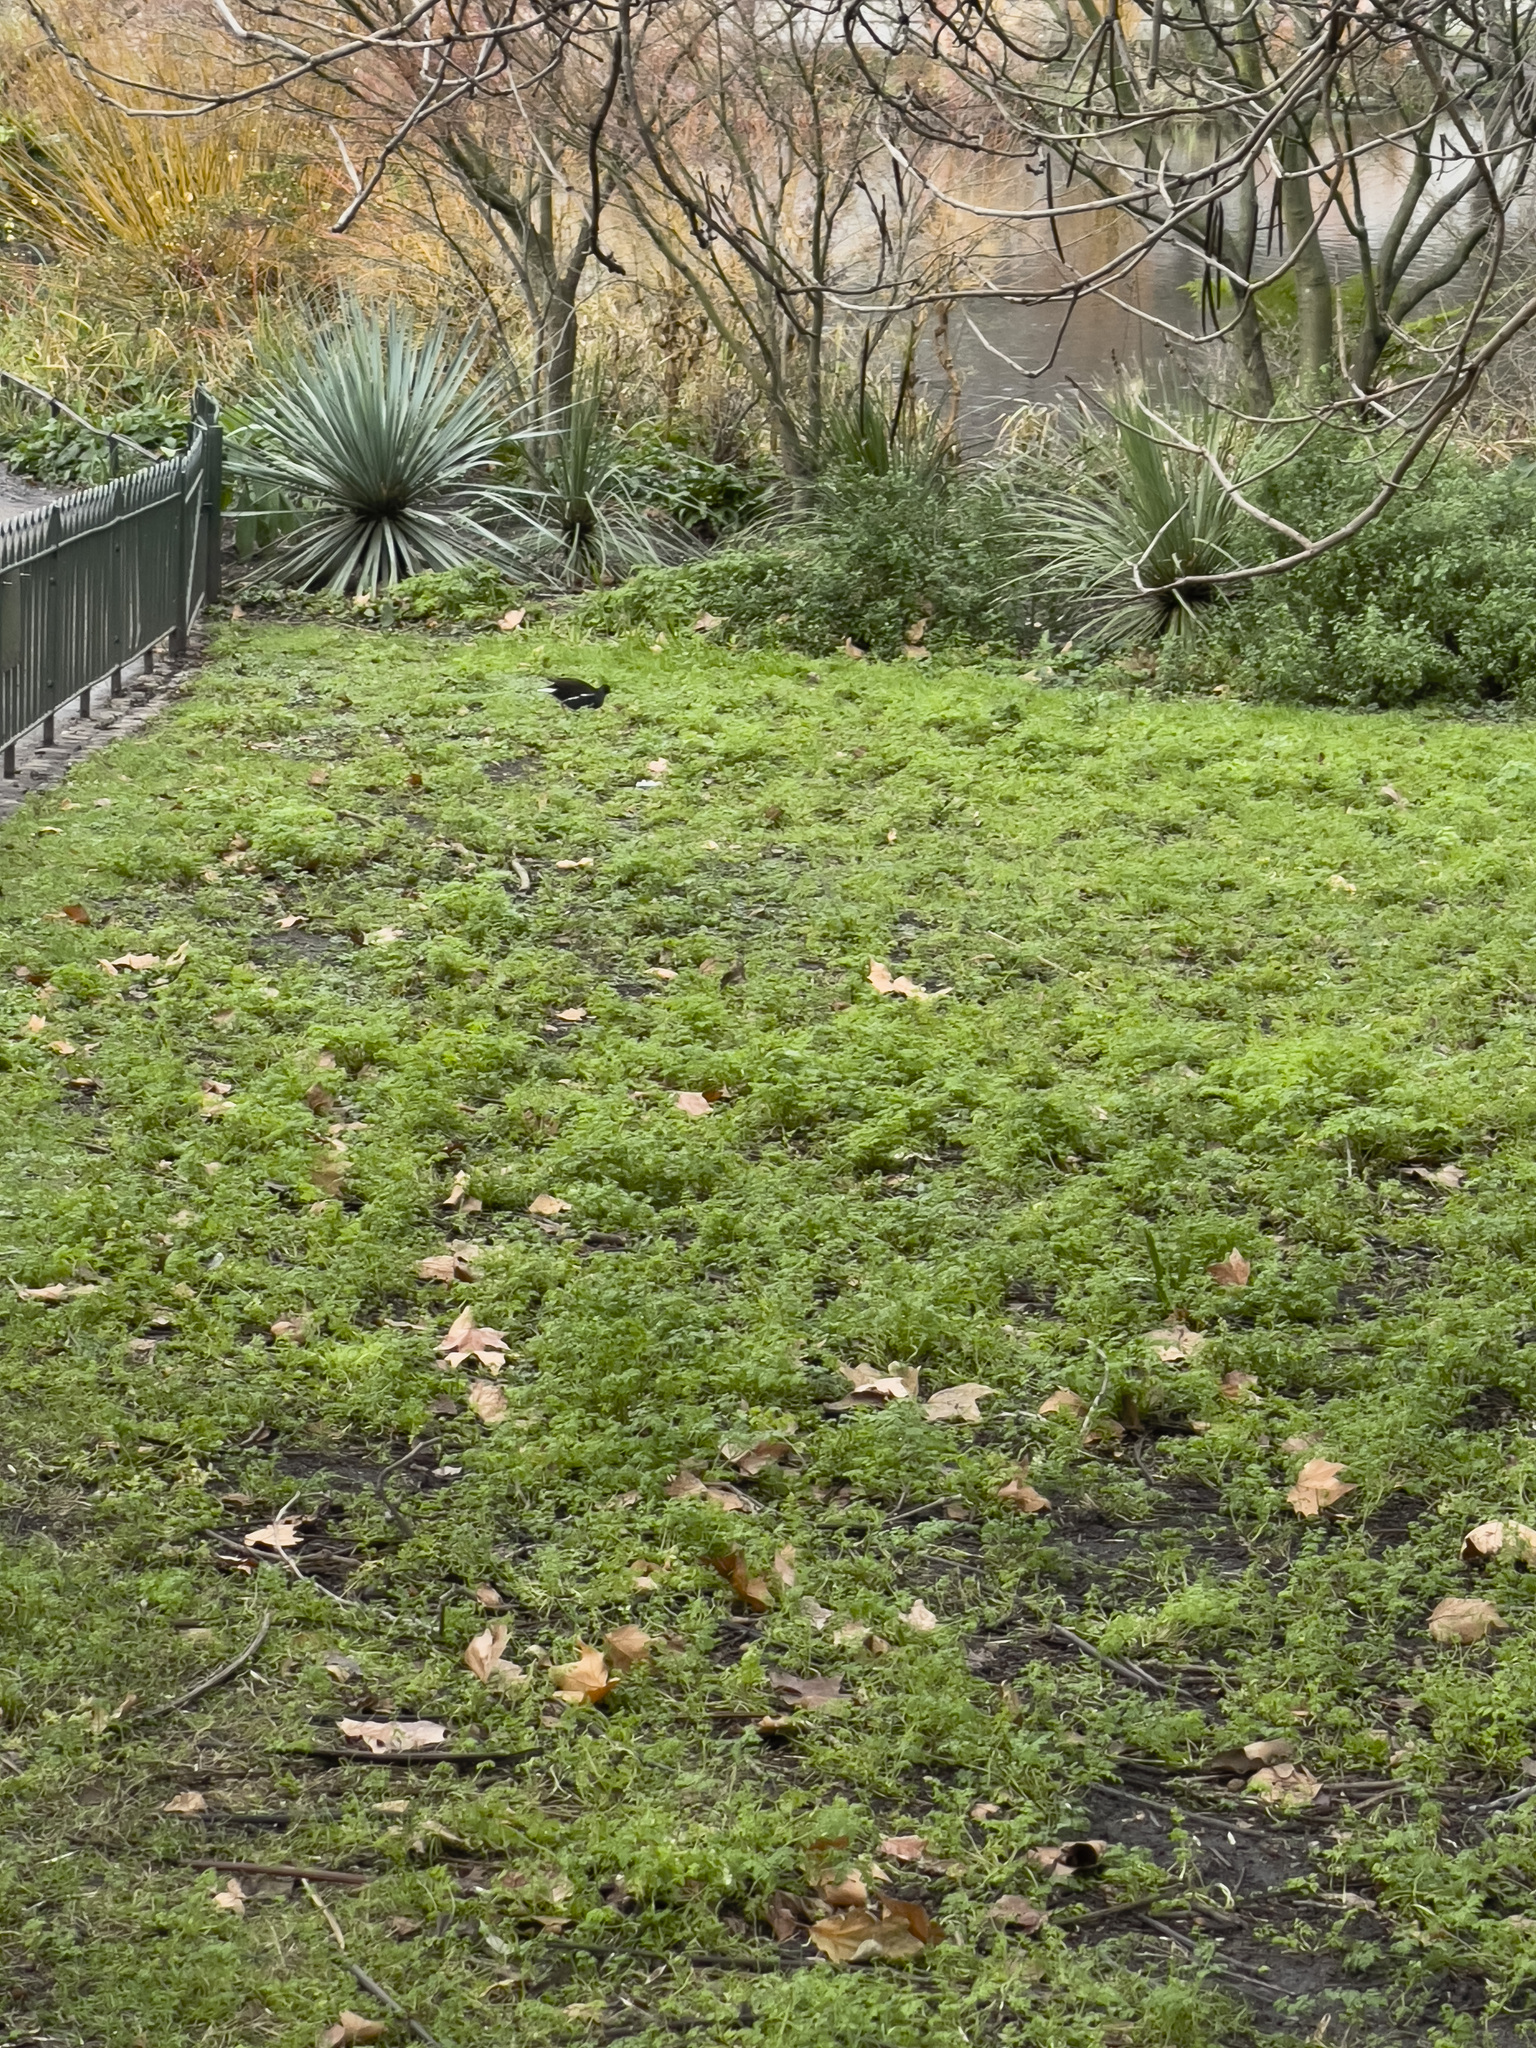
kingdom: Animalia
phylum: Chordata
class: Aves
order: Gruiformes
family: Rallidae
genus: Gallinula
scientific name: Gallinula chloropus
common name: Common moorhen
